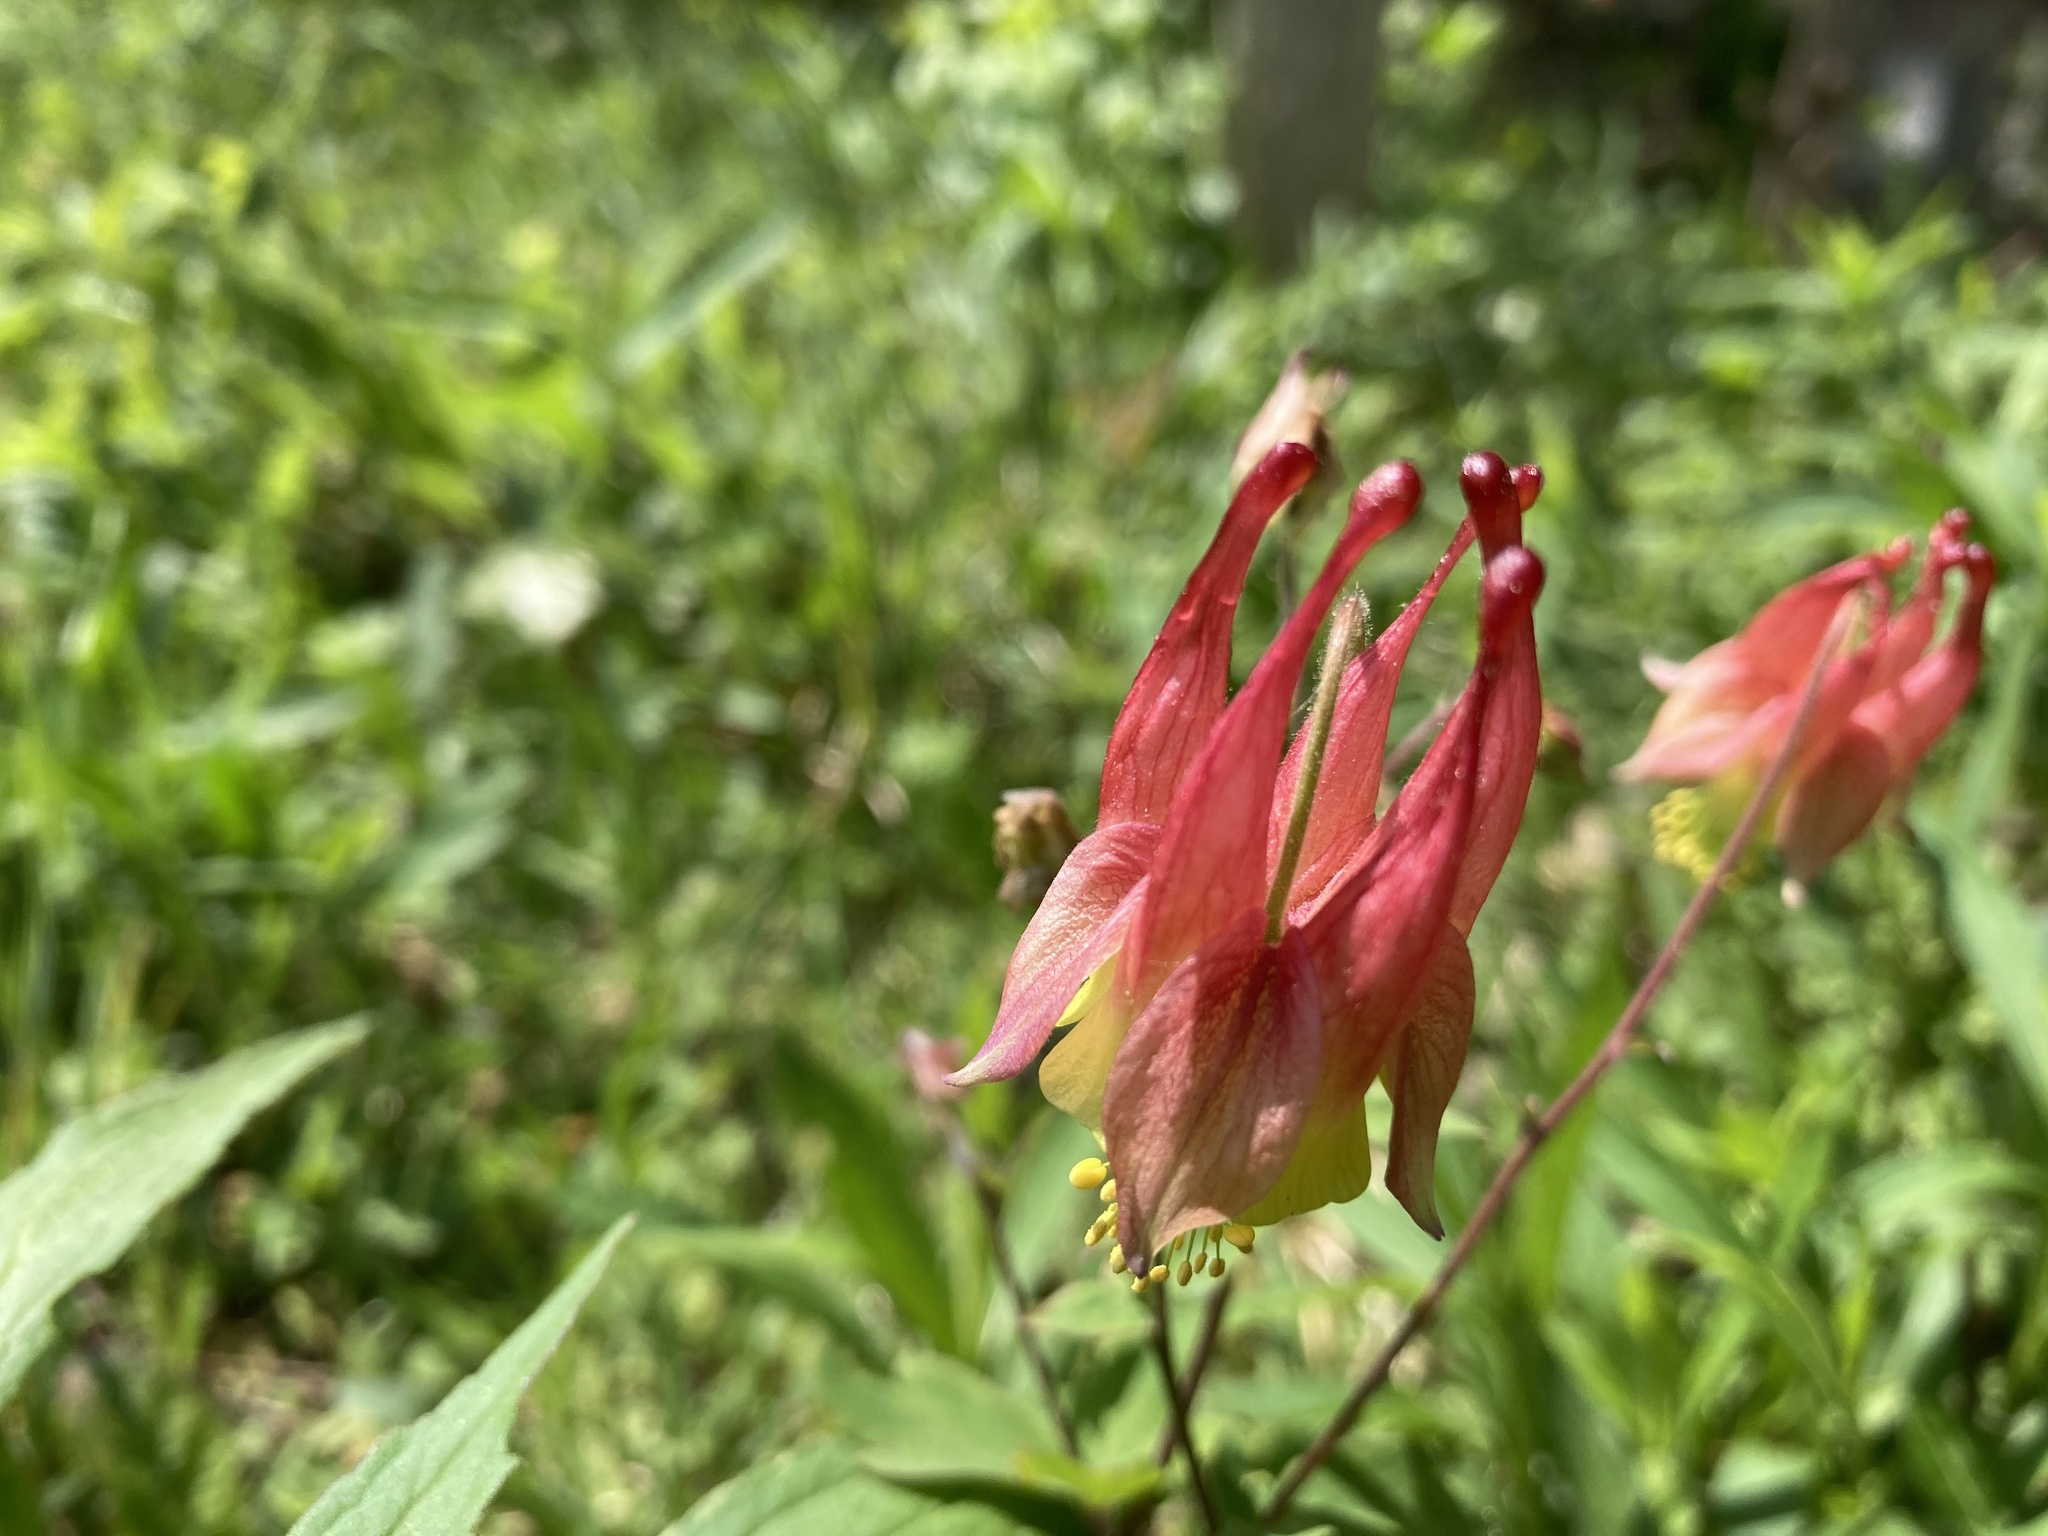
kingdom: Plantae
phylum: Tracheophyta
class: Magnoliopsida
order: Ranunculales
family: Ranunculaceae
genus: Aquilegia
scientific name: Aquilegia canadensis
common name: American columbine
